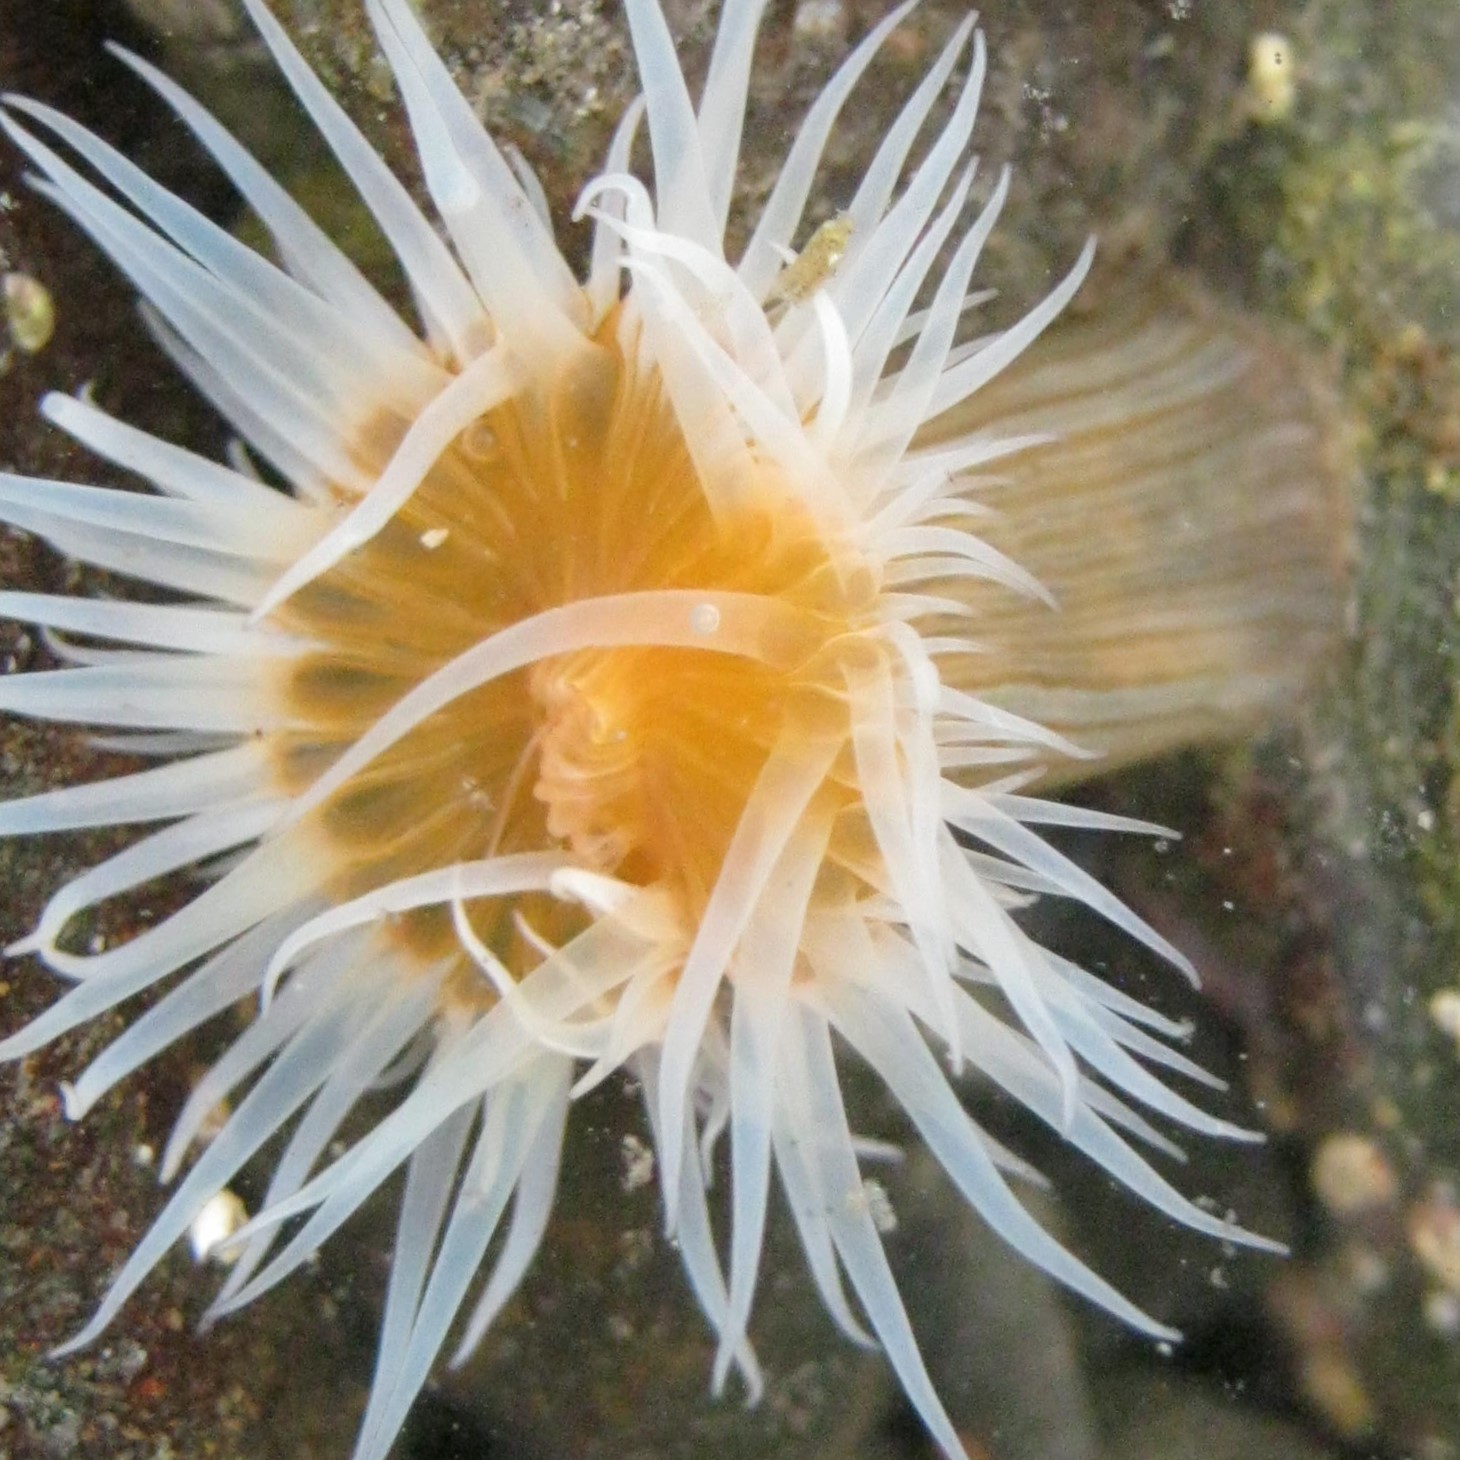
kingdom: Animalia
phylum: Cnidaria
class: Anthozoa
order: Actiniaria
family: Sagartiidae
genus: Anthothoe
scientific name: Anthothoe albocincta
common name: Orange striped anemone
